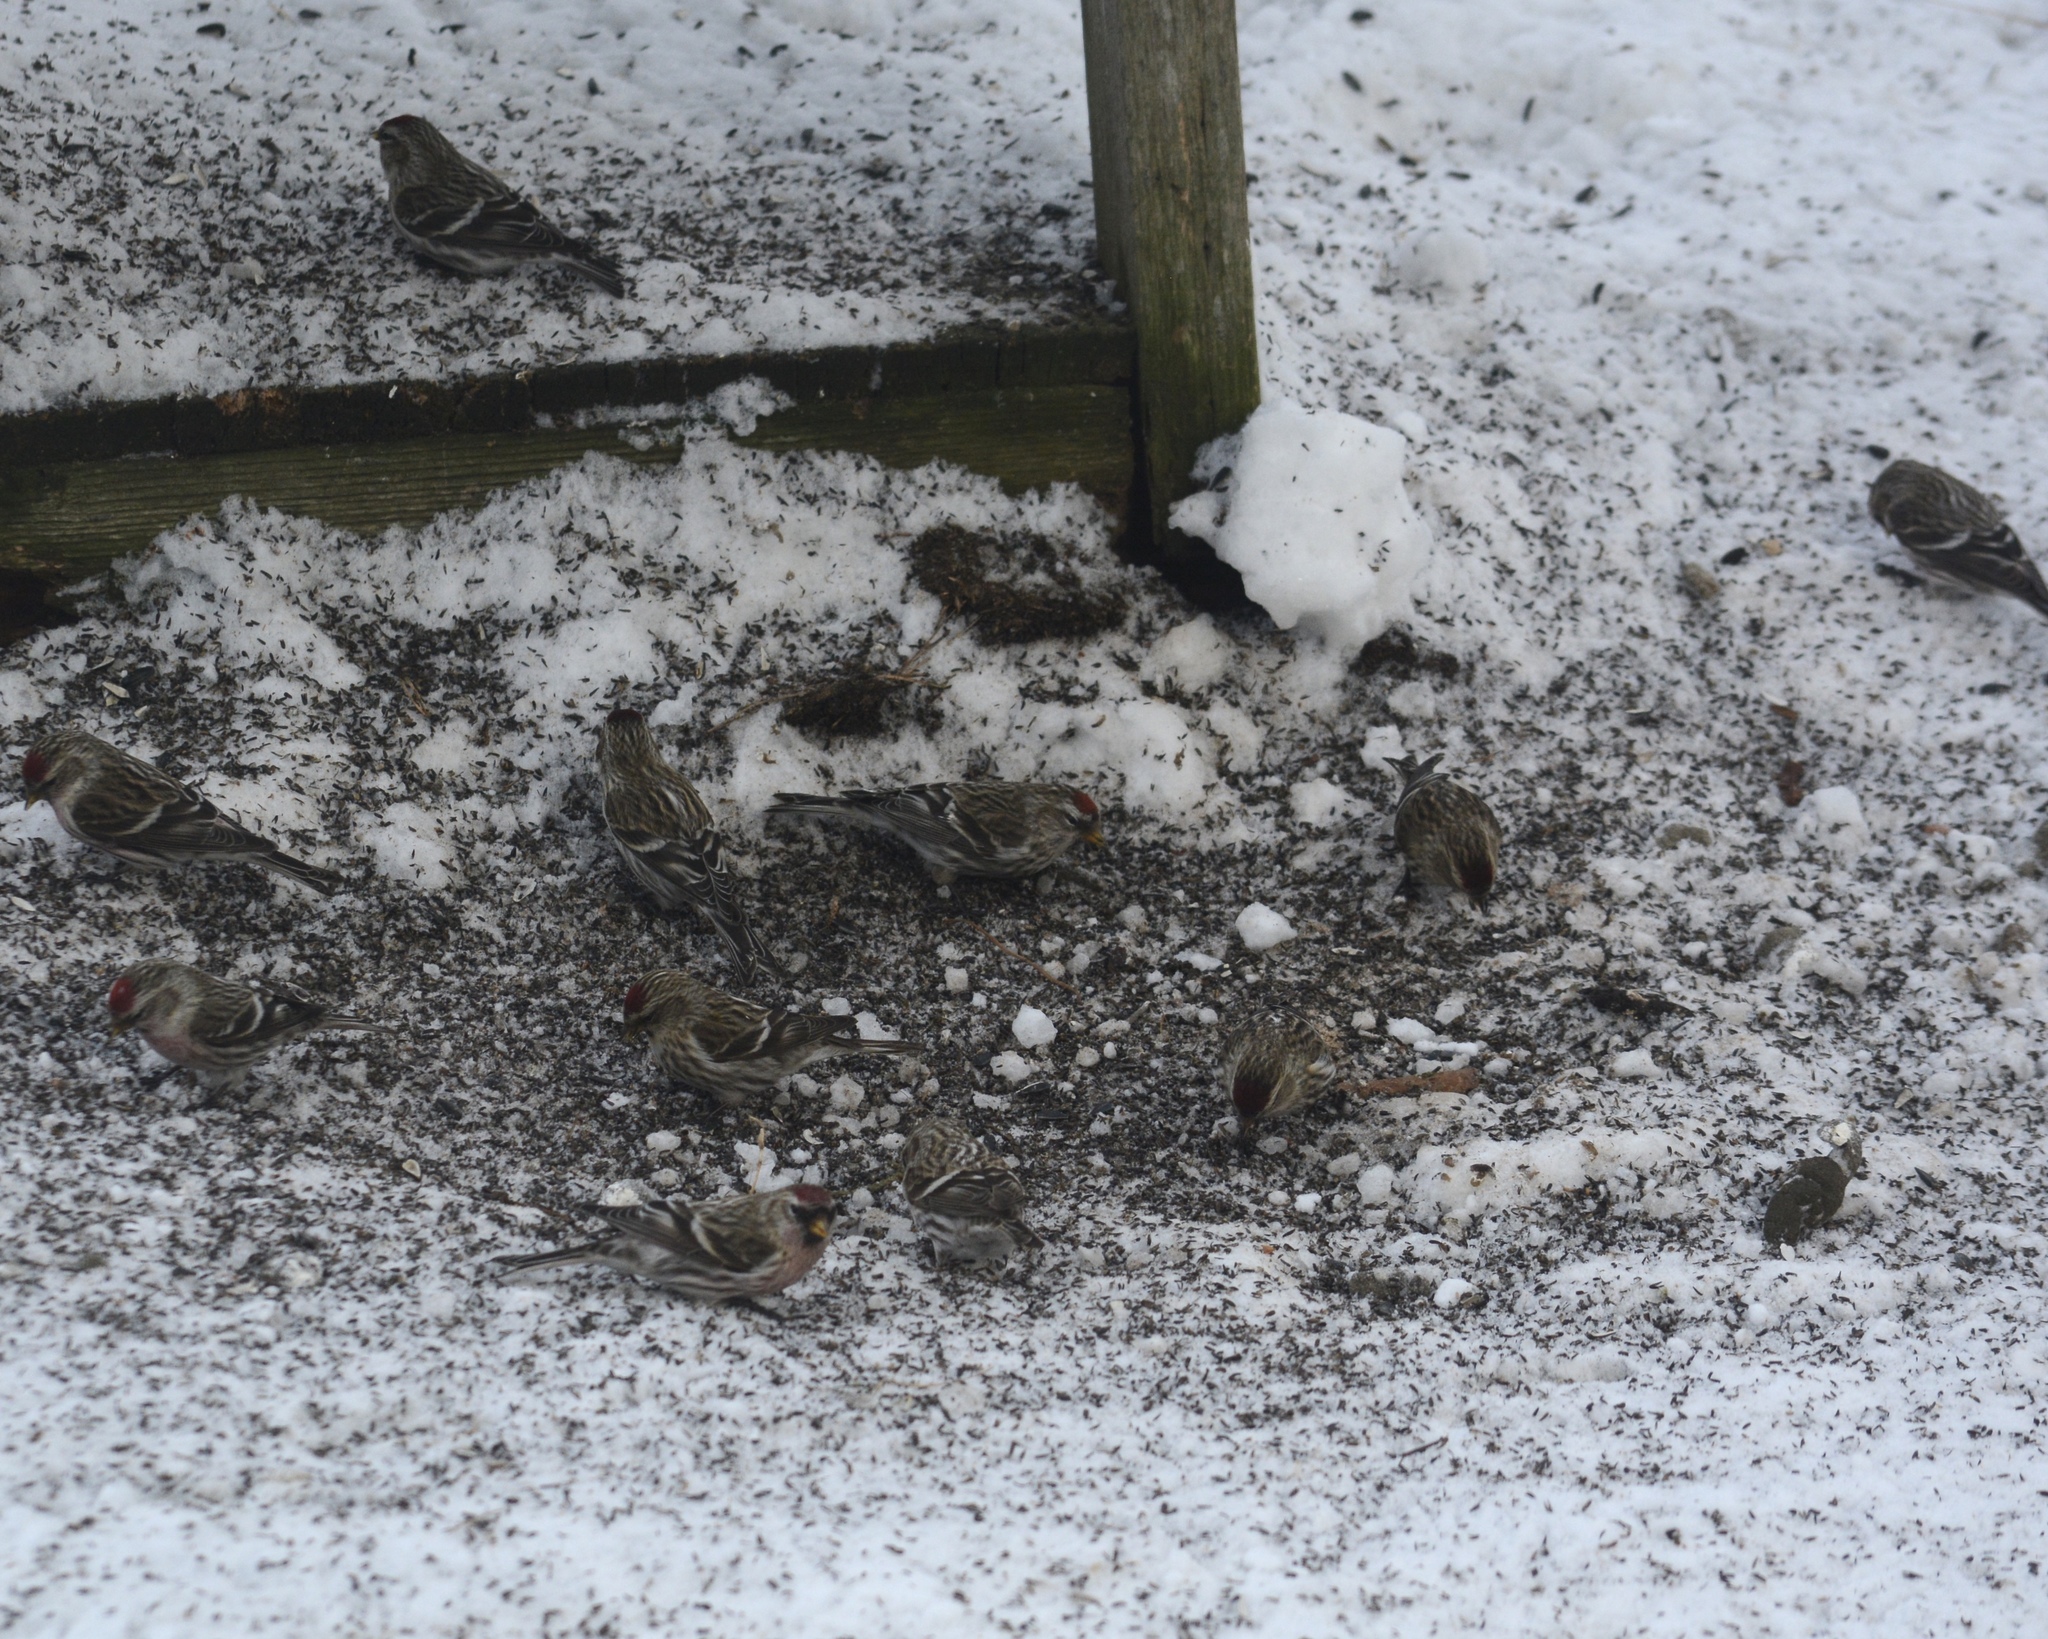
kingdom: Animalia
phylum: Chordata
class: Aves
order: Passeriformes
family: Fringillidae
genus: Acanthis
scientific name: Acanthis flammea
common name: Common redpoll
